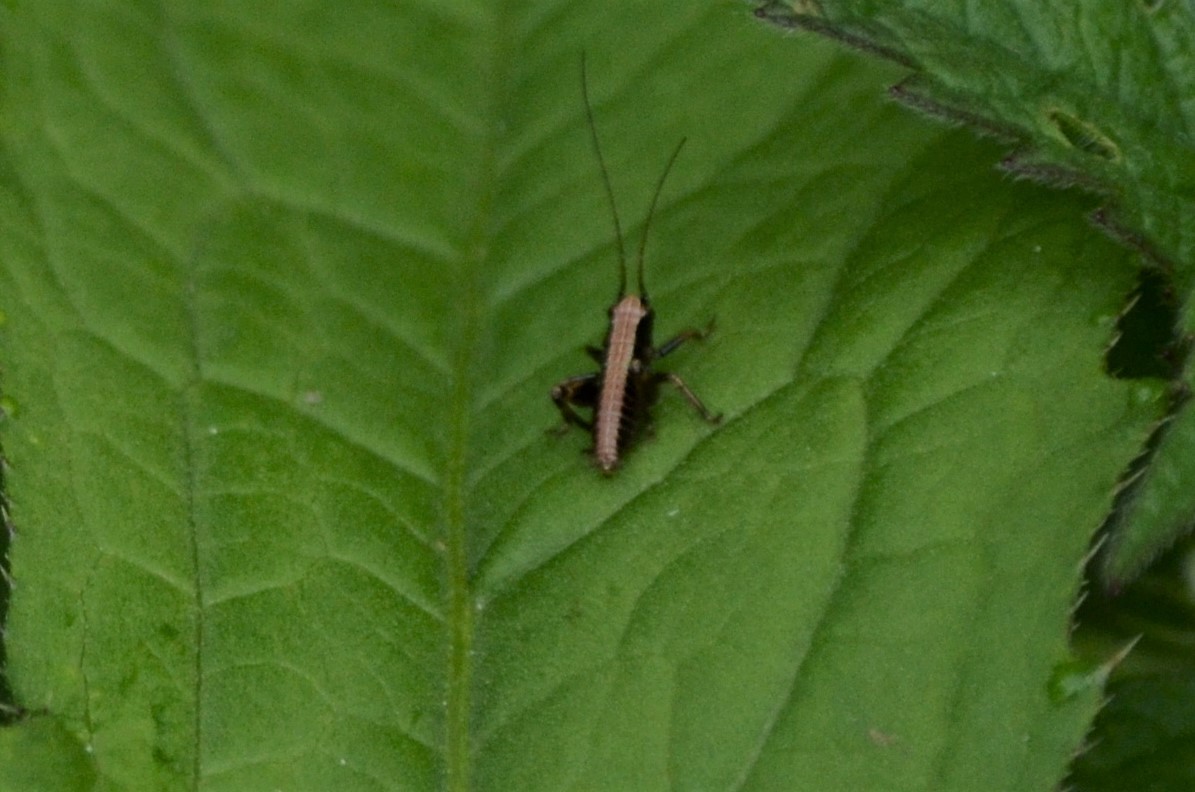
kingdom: Animalia
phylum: Arthropoda
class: Insecta
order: Orthoptera
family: Tettigoniidae
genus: Pholidoptera
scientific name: Pholidoptera griseoaptera
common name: Dark bush-cricket
